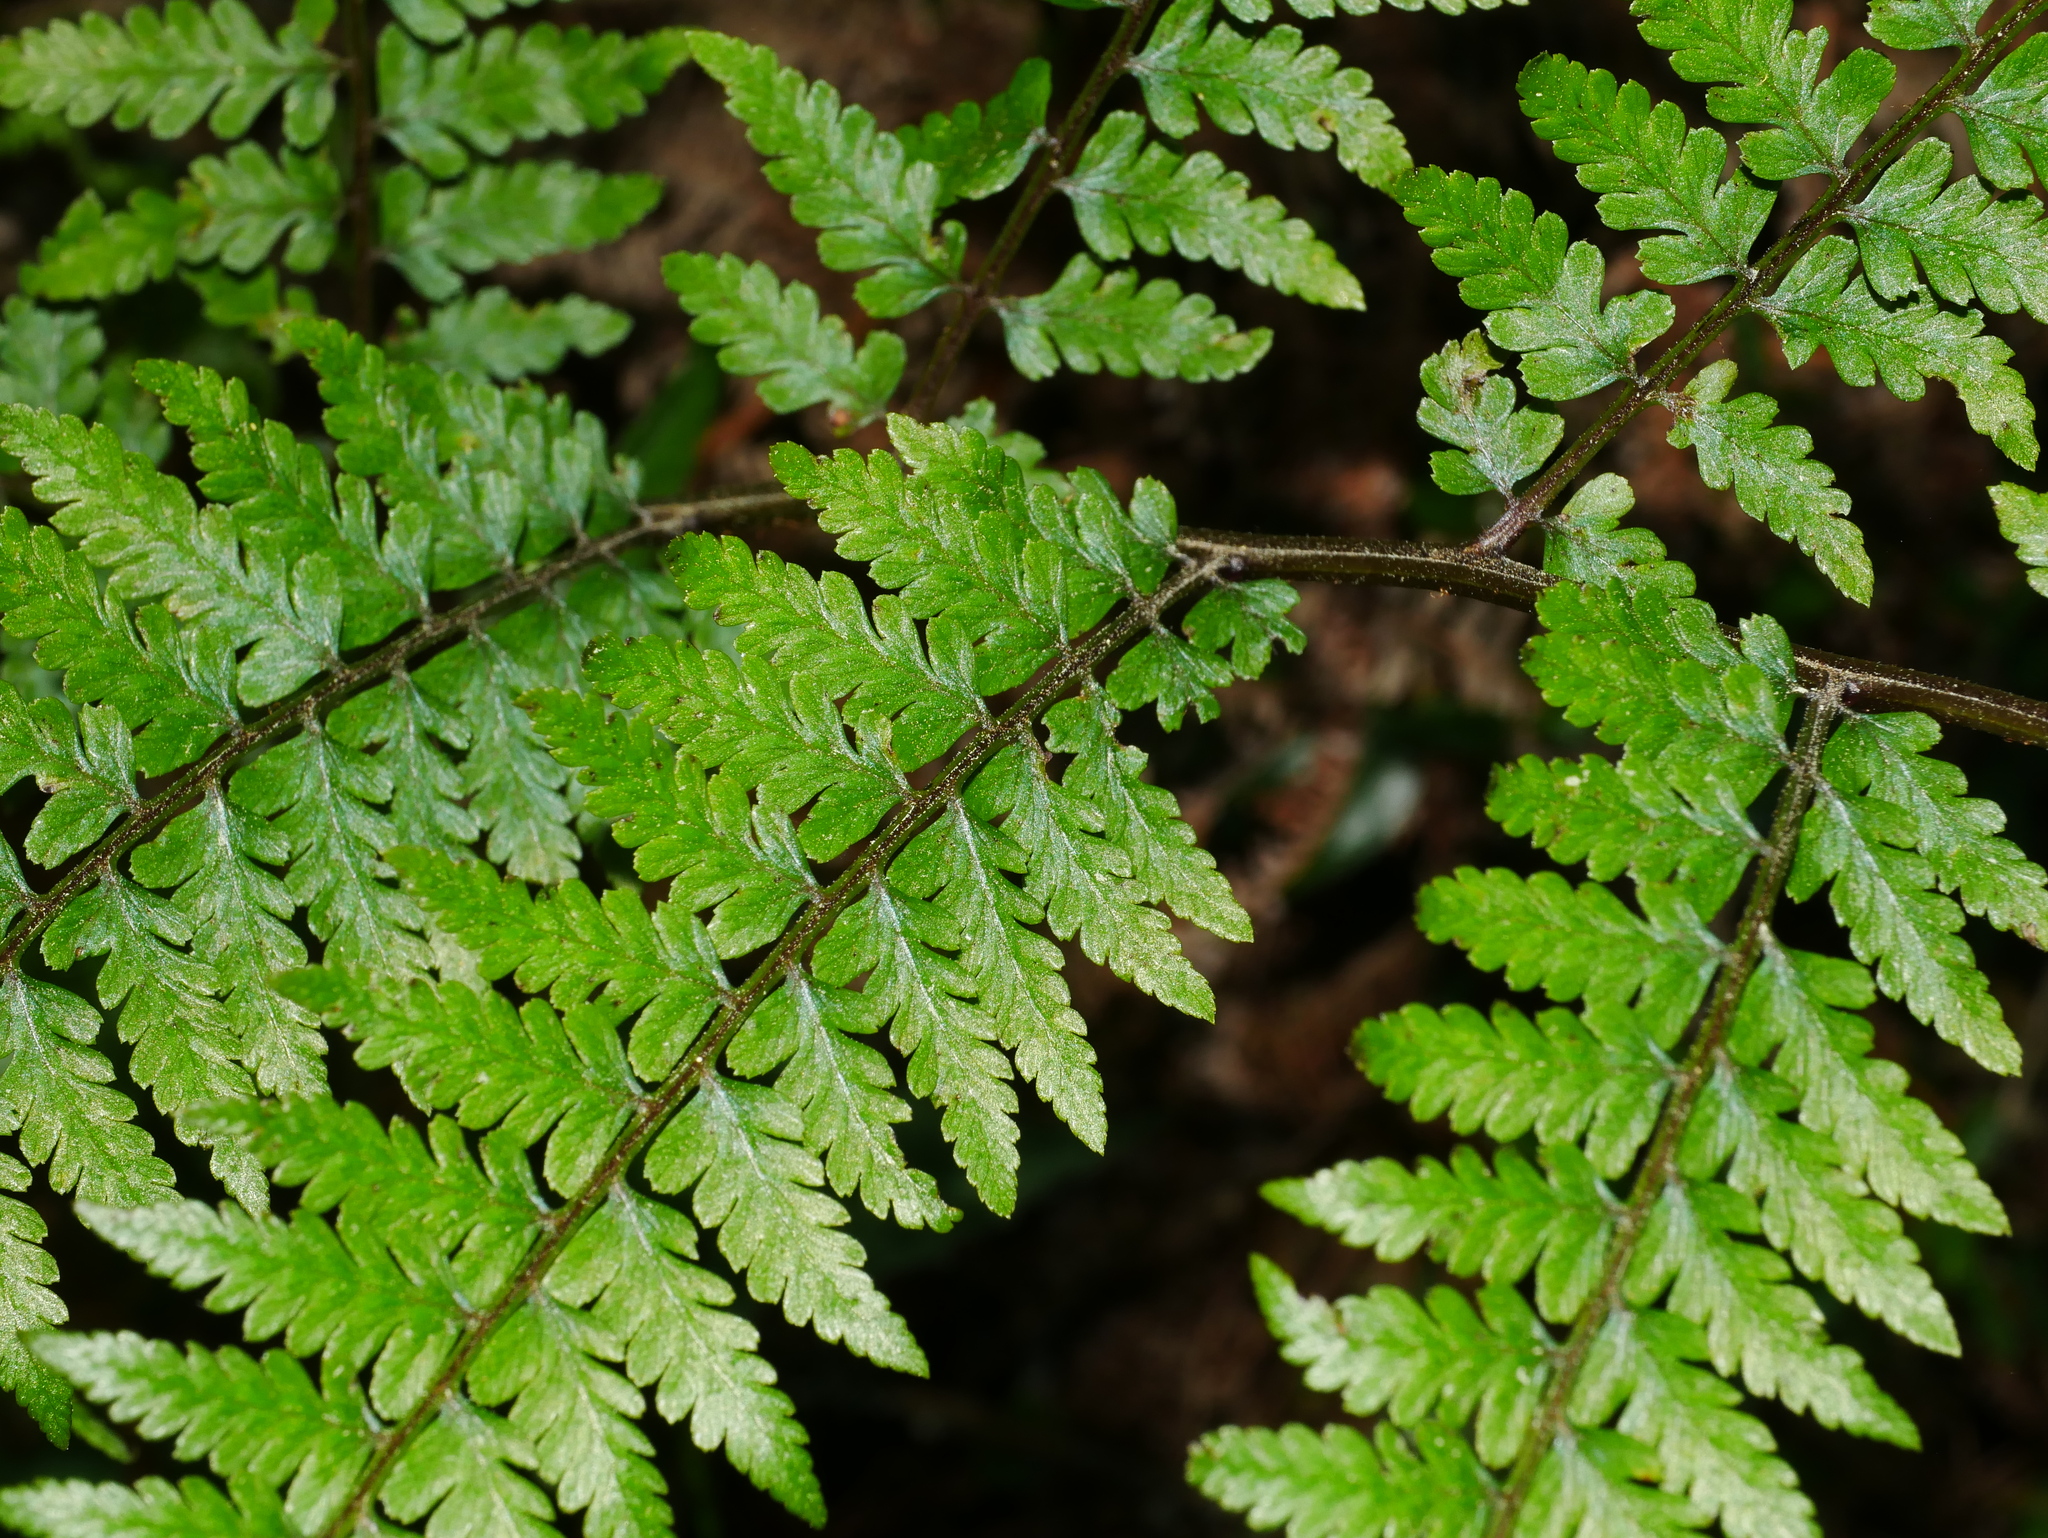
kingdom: Plantae
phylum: Tracheophyta
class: Polypodiopsida
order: Polypodiales
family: Athyriaceae
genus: Athyrium
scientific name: Athyrium vidalii
